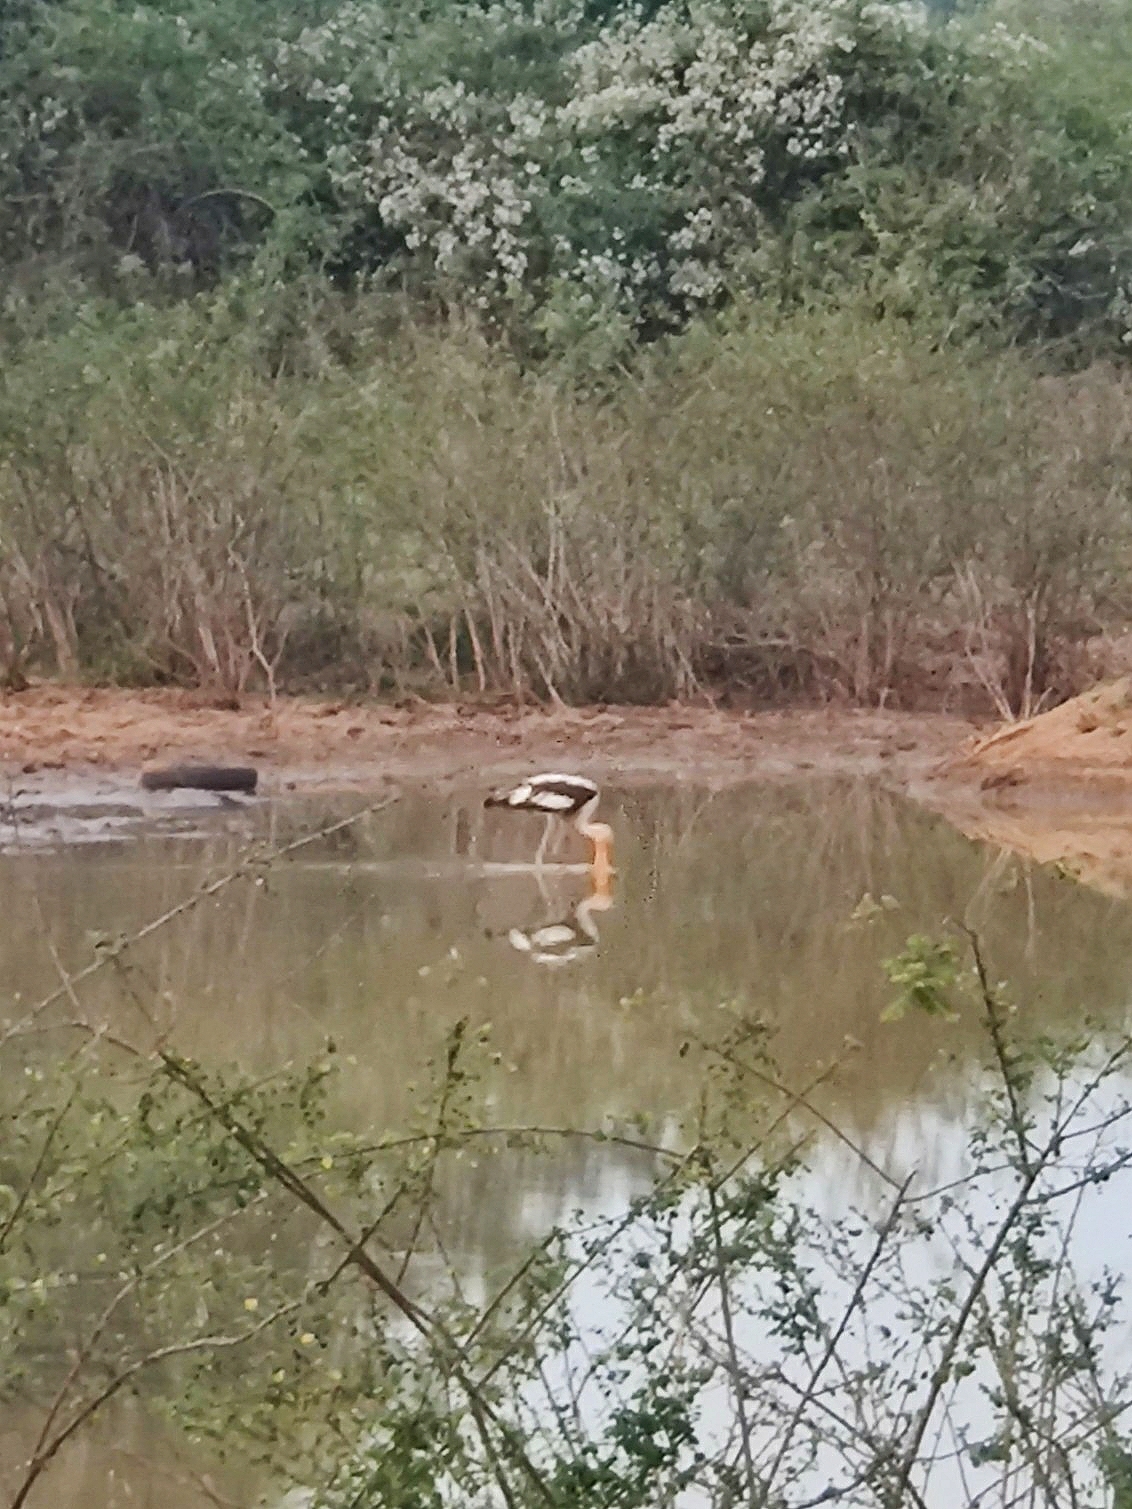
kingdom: Animalia
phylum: Chordata
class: Aves
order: Ciconiiformes
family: Ciconiidae
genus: Mycteria
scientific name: Mycteria leucocephala
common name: Painted stork
